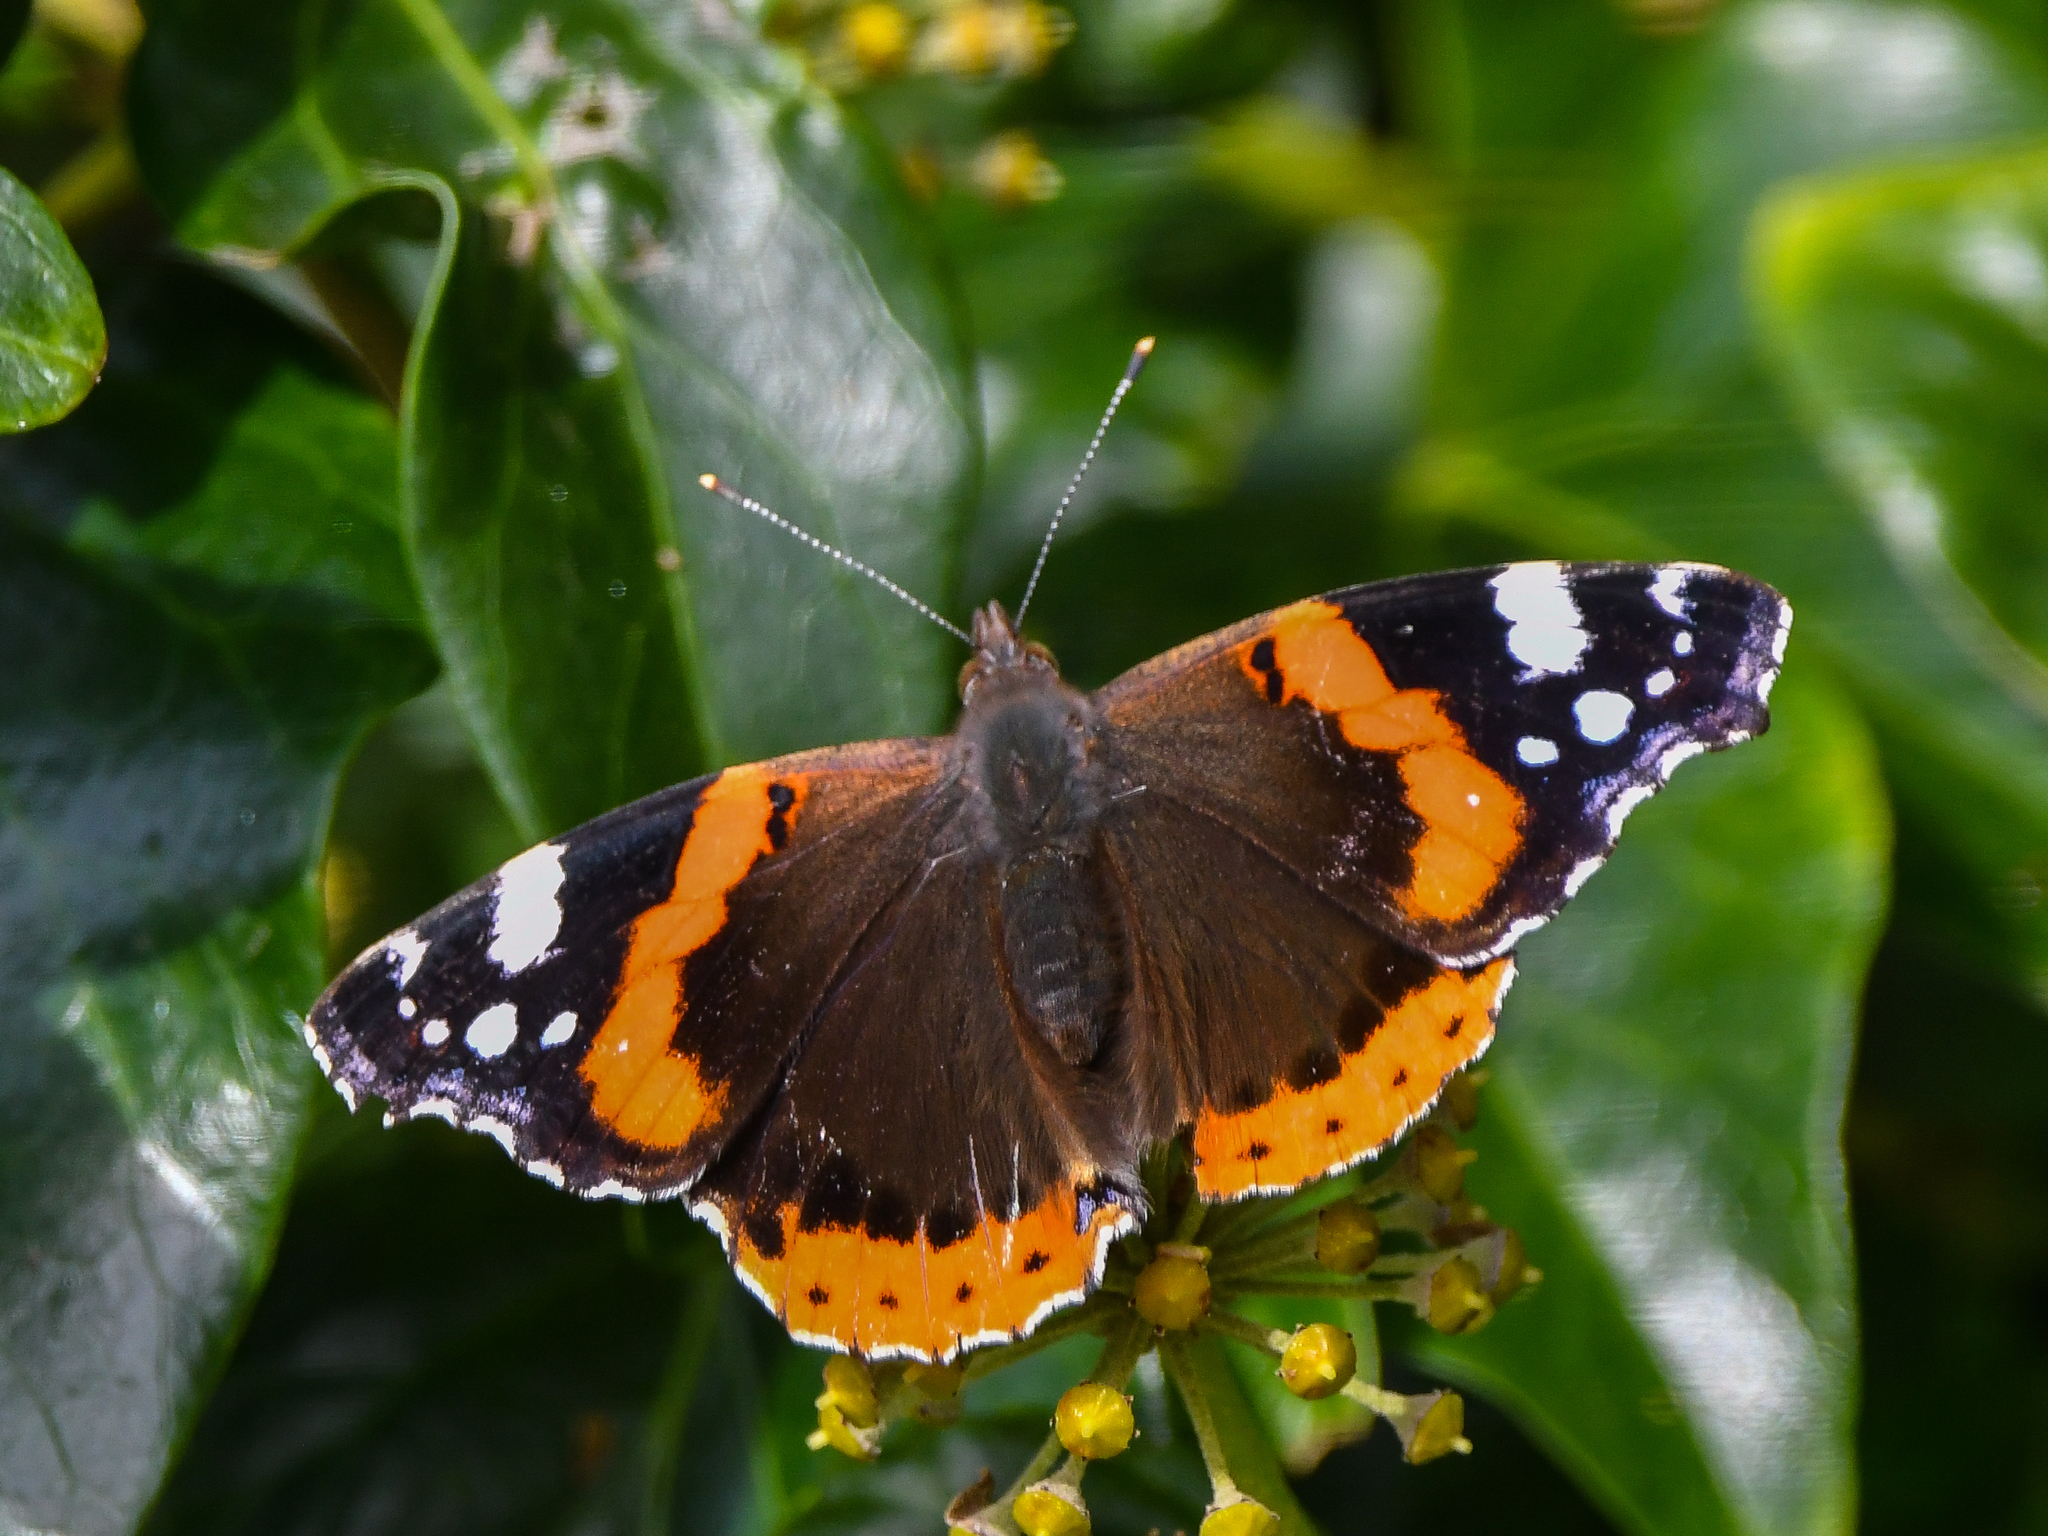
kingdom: Animalia
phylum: Arthropoda
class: Insecta
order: Lepidoptera
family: Nymphalidae
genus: Vanessa
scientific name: Vanessa atalanta
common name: Red admiral
